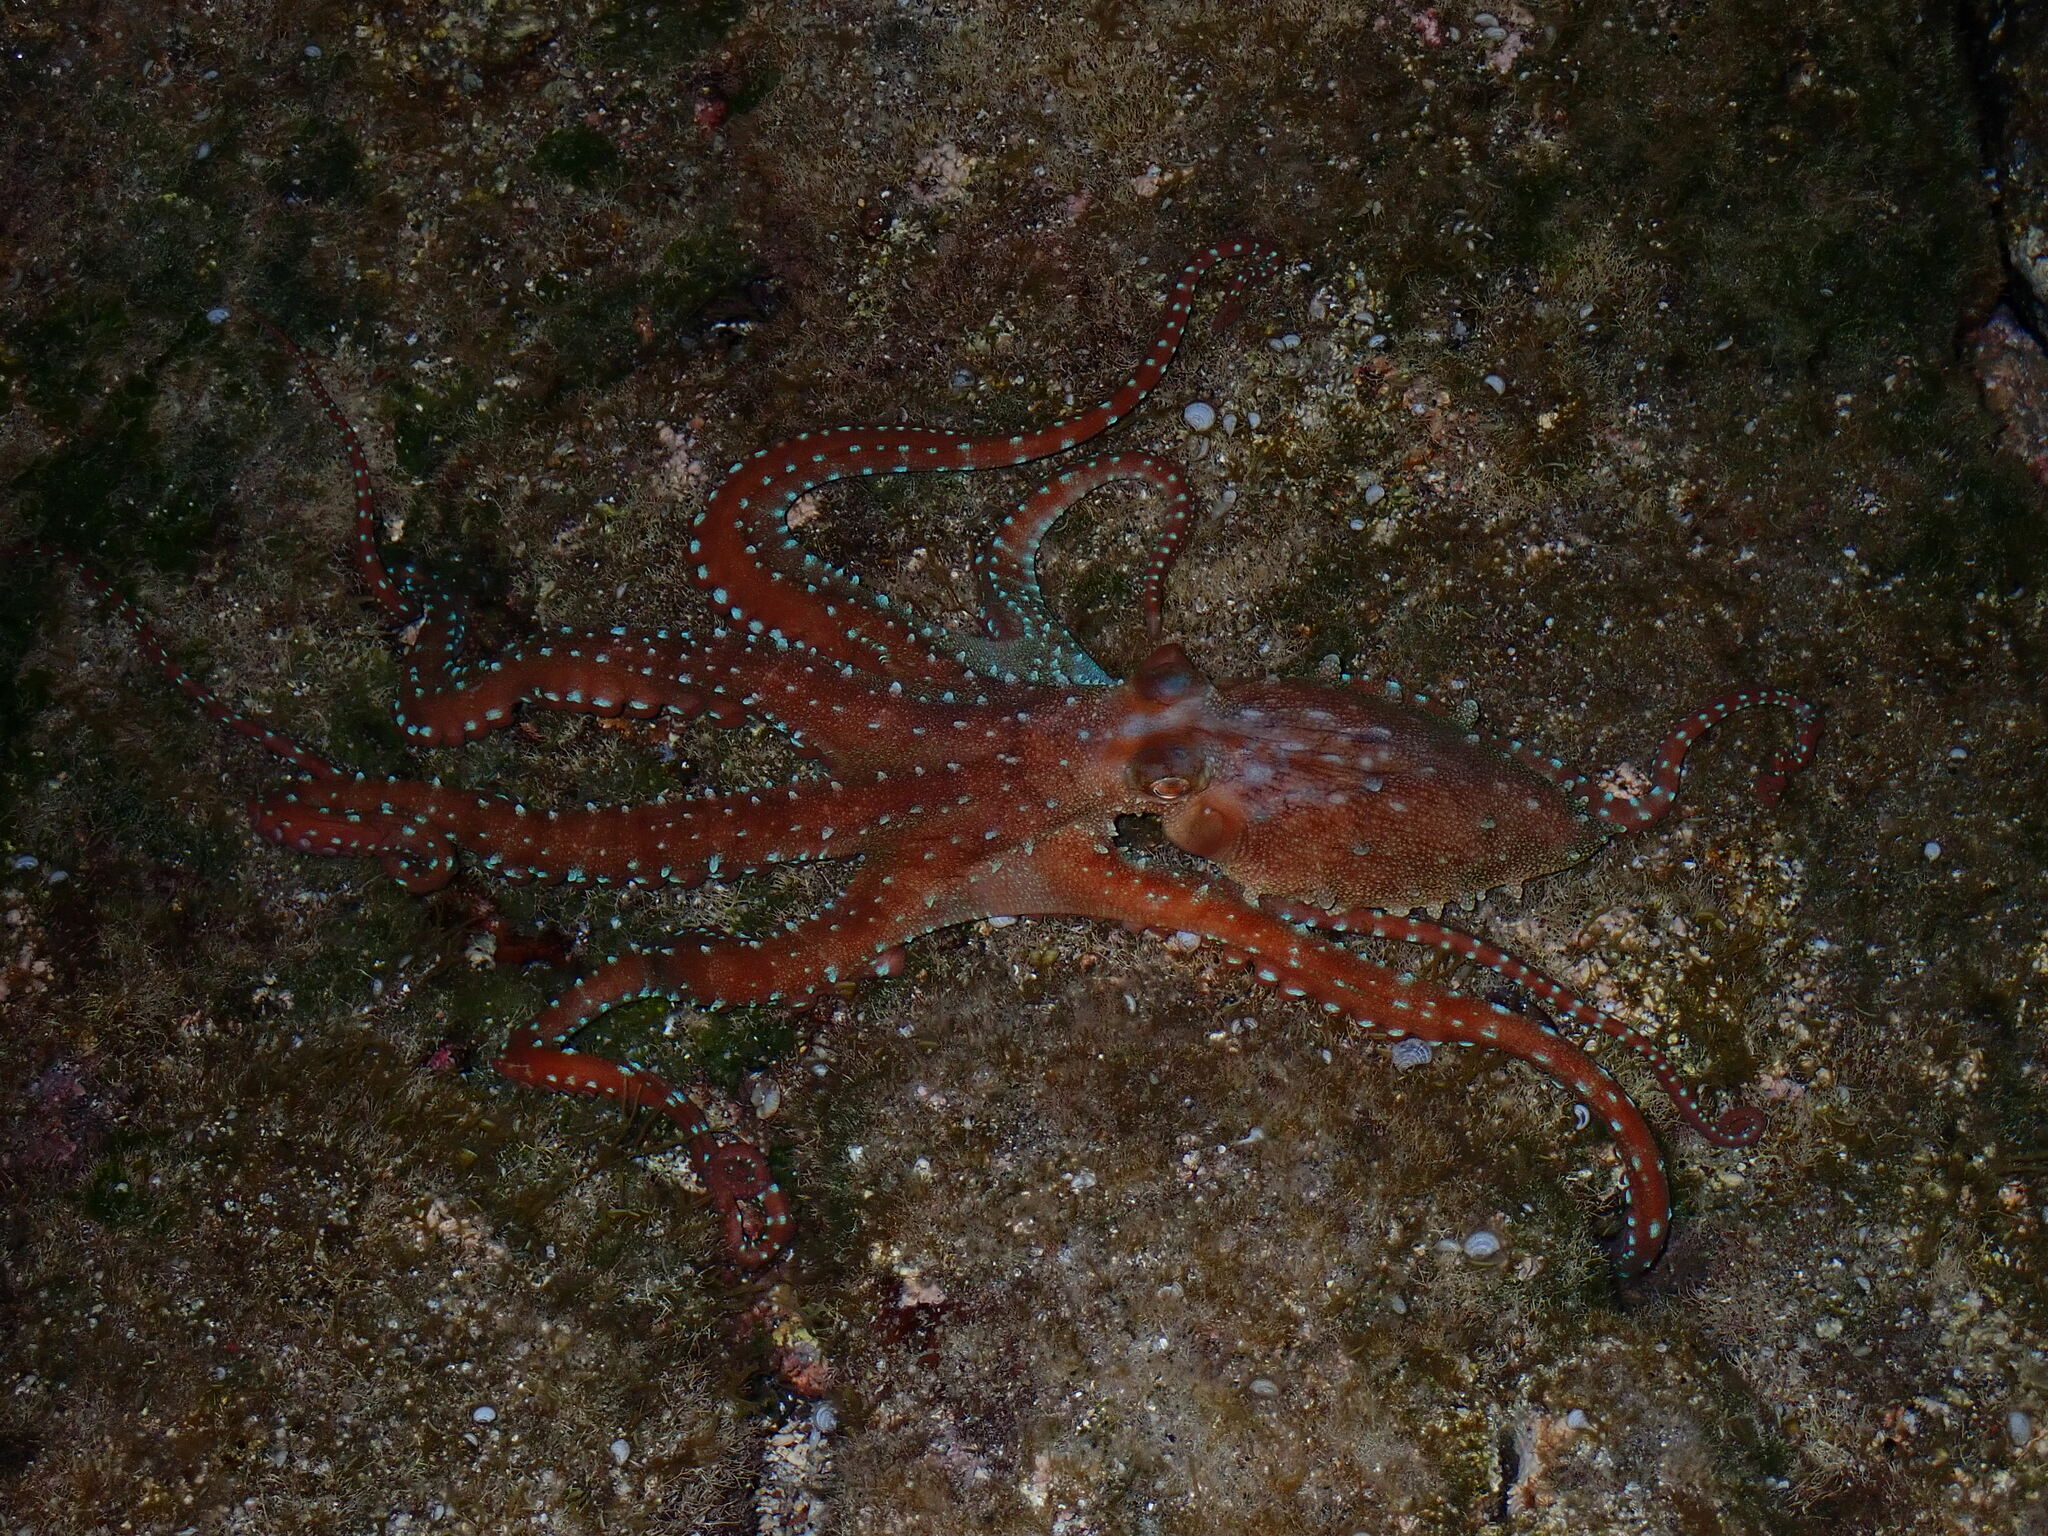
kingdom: Animalia
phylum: Mollusca
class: Cephalopoda
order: Octopoda
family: Octopodidae
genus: Callistoctopus
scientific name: Callistoctopus macropus
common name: Atlantic white-spotted octopus
